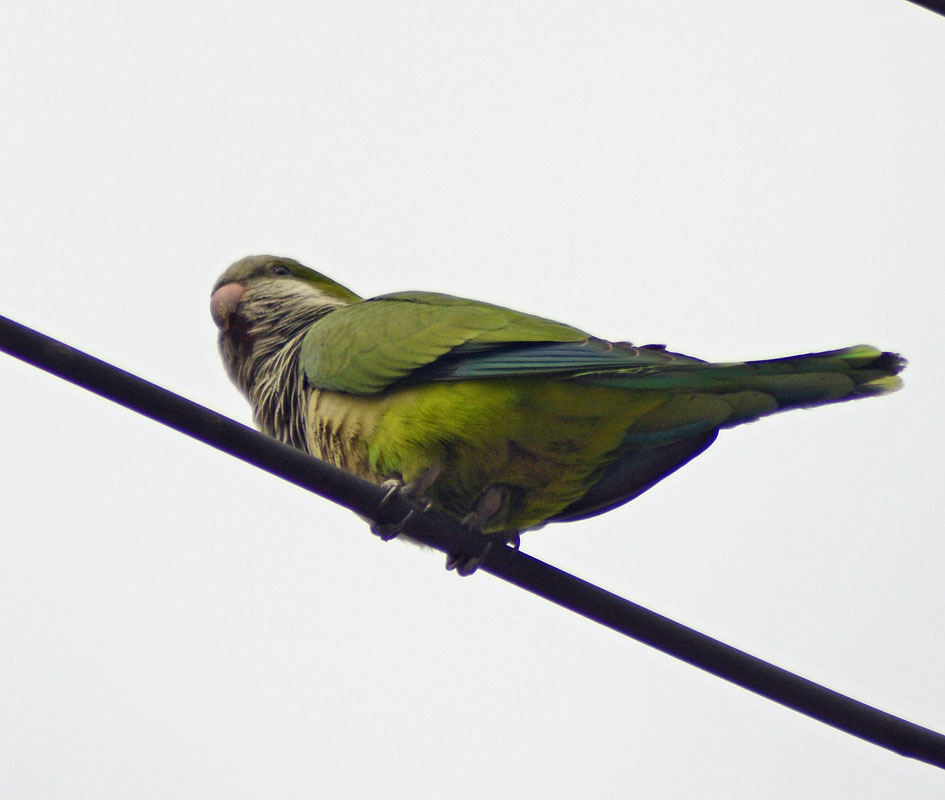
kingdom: Animalia
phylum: Chordata
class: Aves
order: Psittaciformes
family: Psittacidae
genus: Myiopsitta
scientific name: Myiopsitta monachus
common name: Monk parakeet
